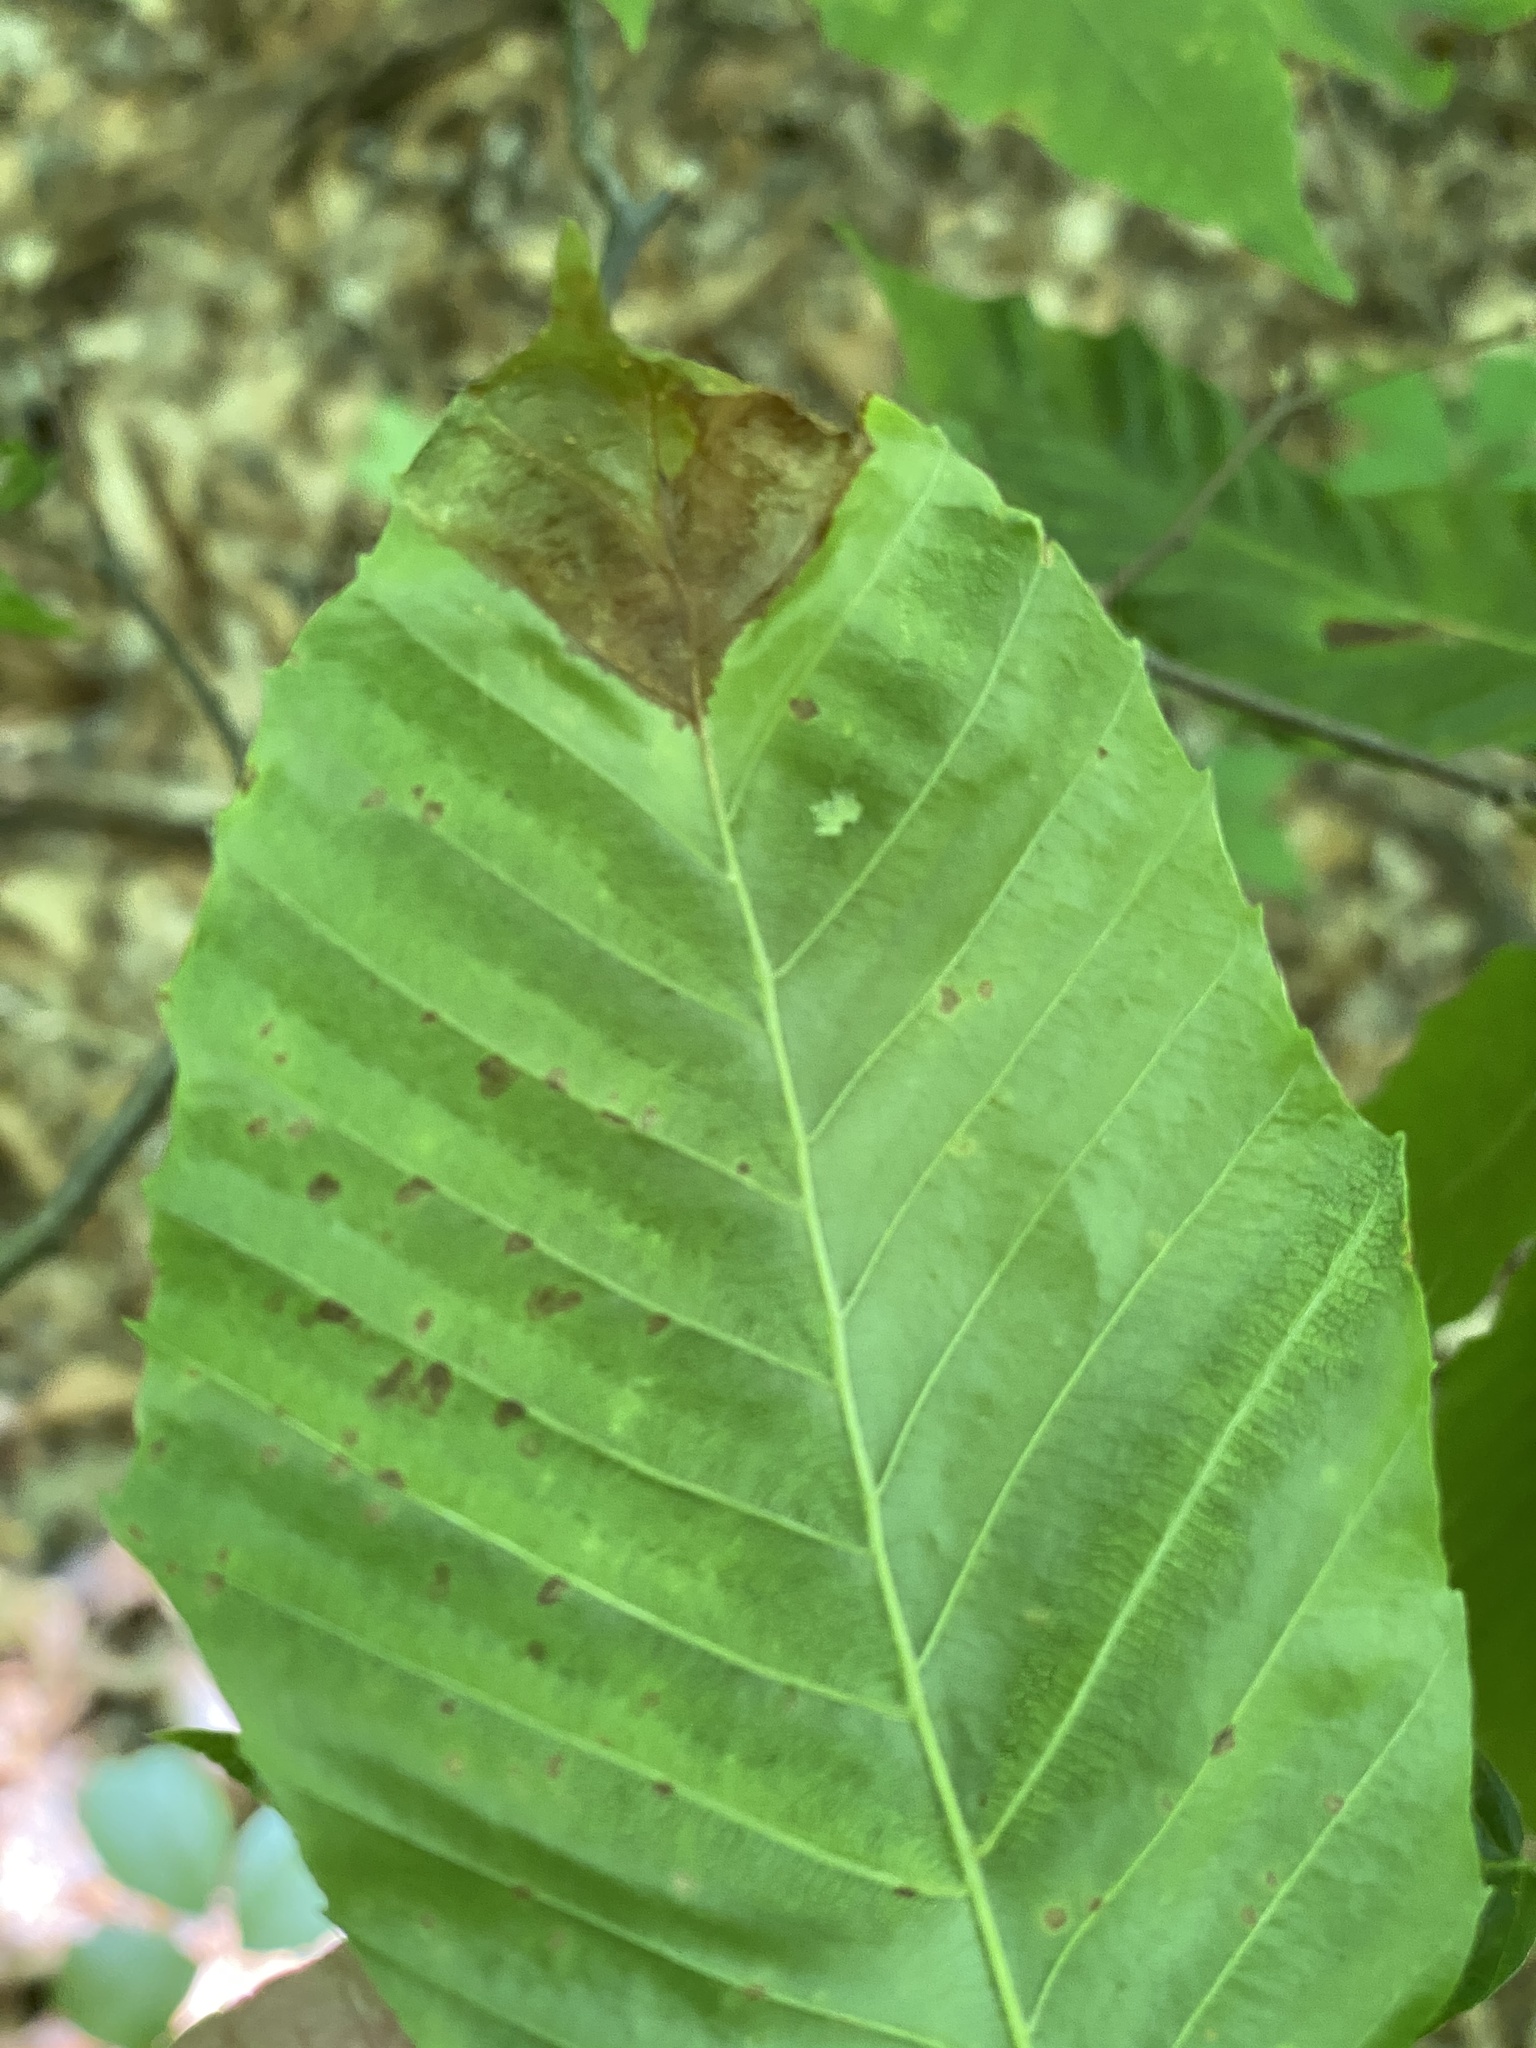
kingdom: Plantae
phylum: Tracheophyta
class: Magnoliopsida
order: Fagales
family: Fagaceae
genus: Fagus
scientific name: Fagus grandifolia
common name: American beech
